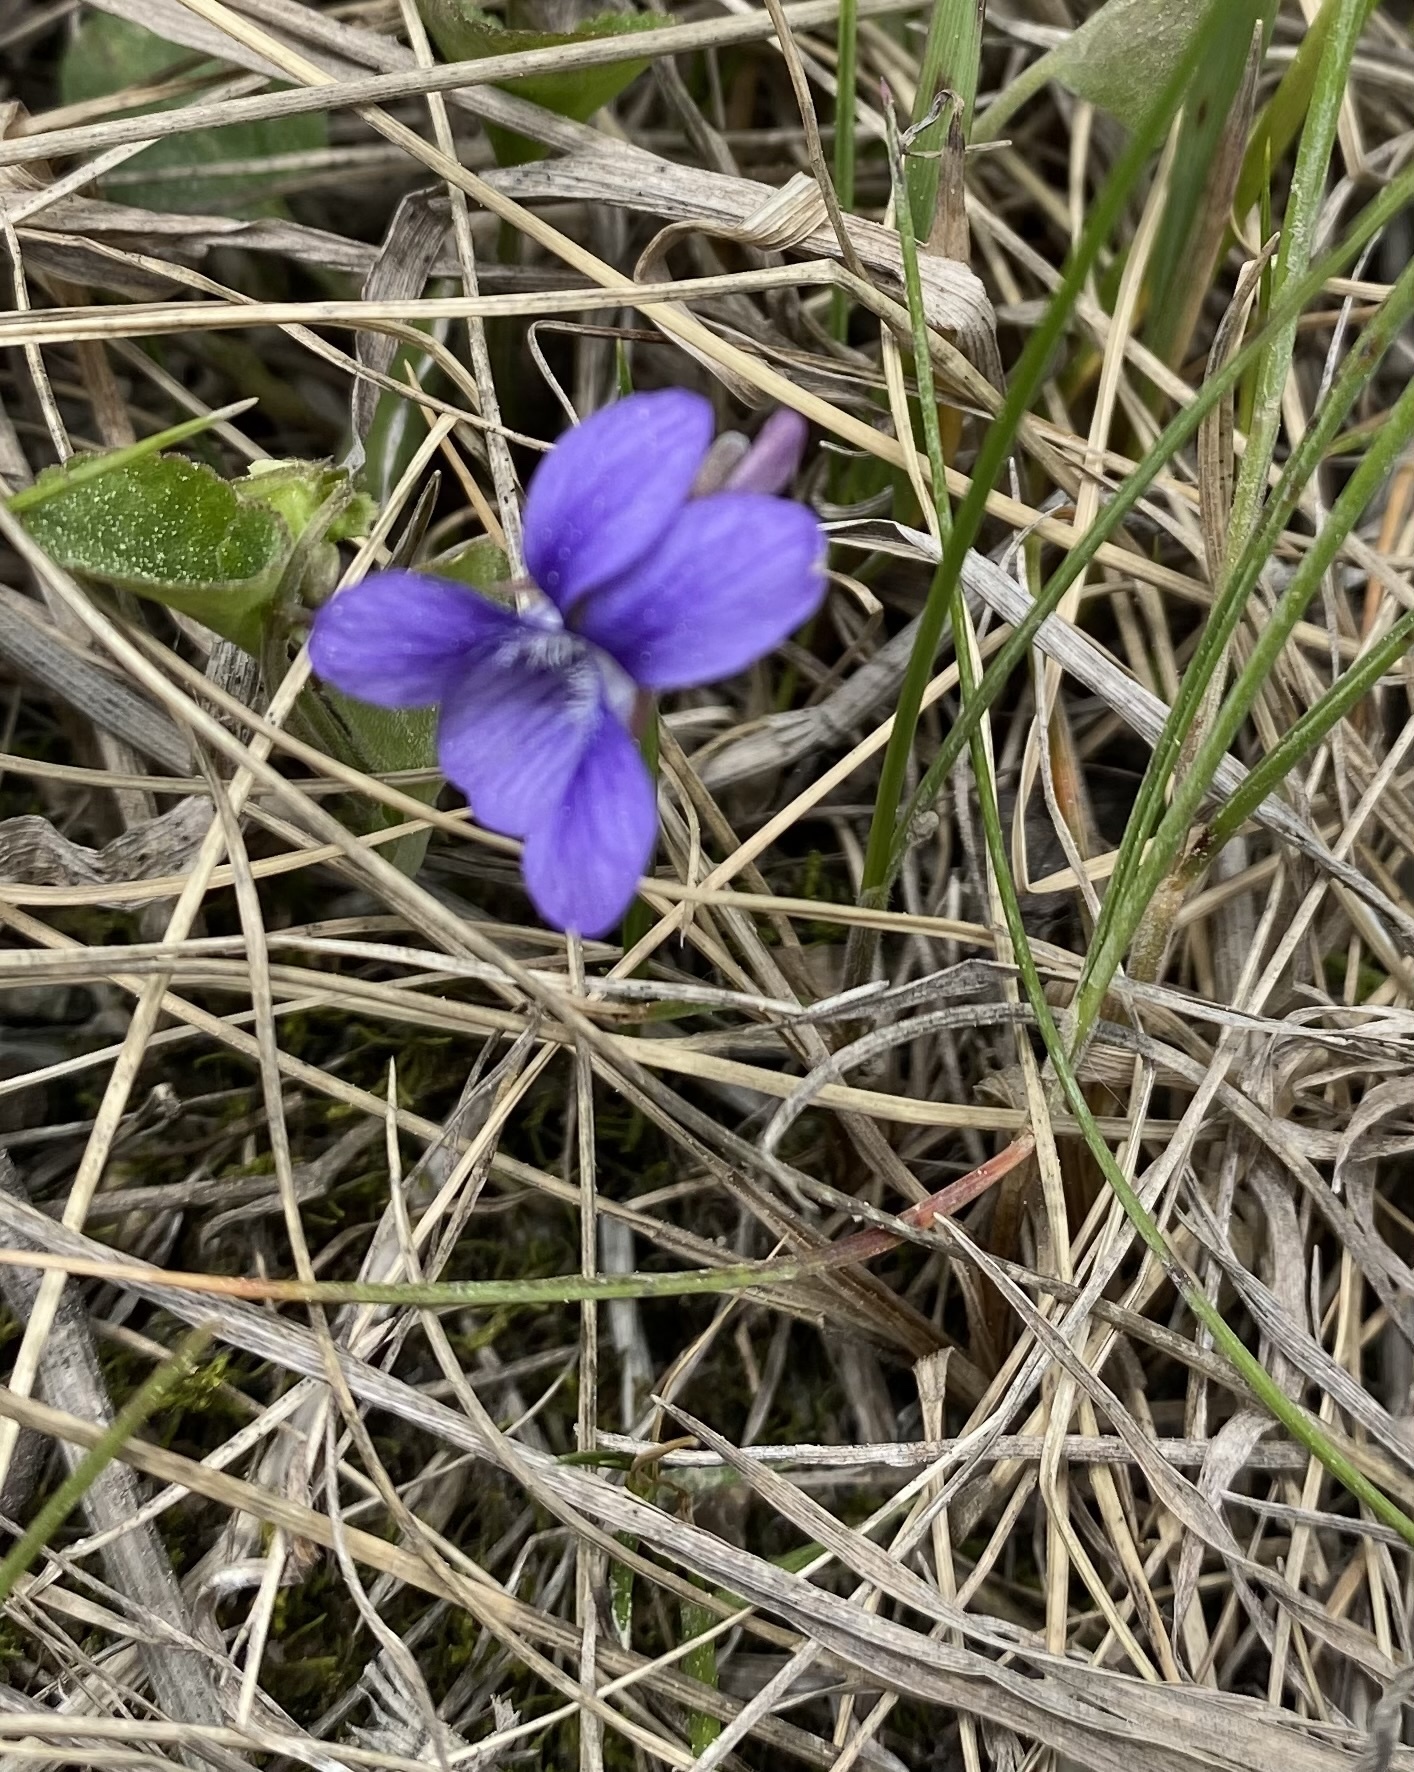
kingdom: Plantae
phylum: Tracheophyta
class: Magnoliopsida
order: Malpighiales
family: Violaceae
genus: Viola
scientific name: Viola adunca
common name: Sand violet
